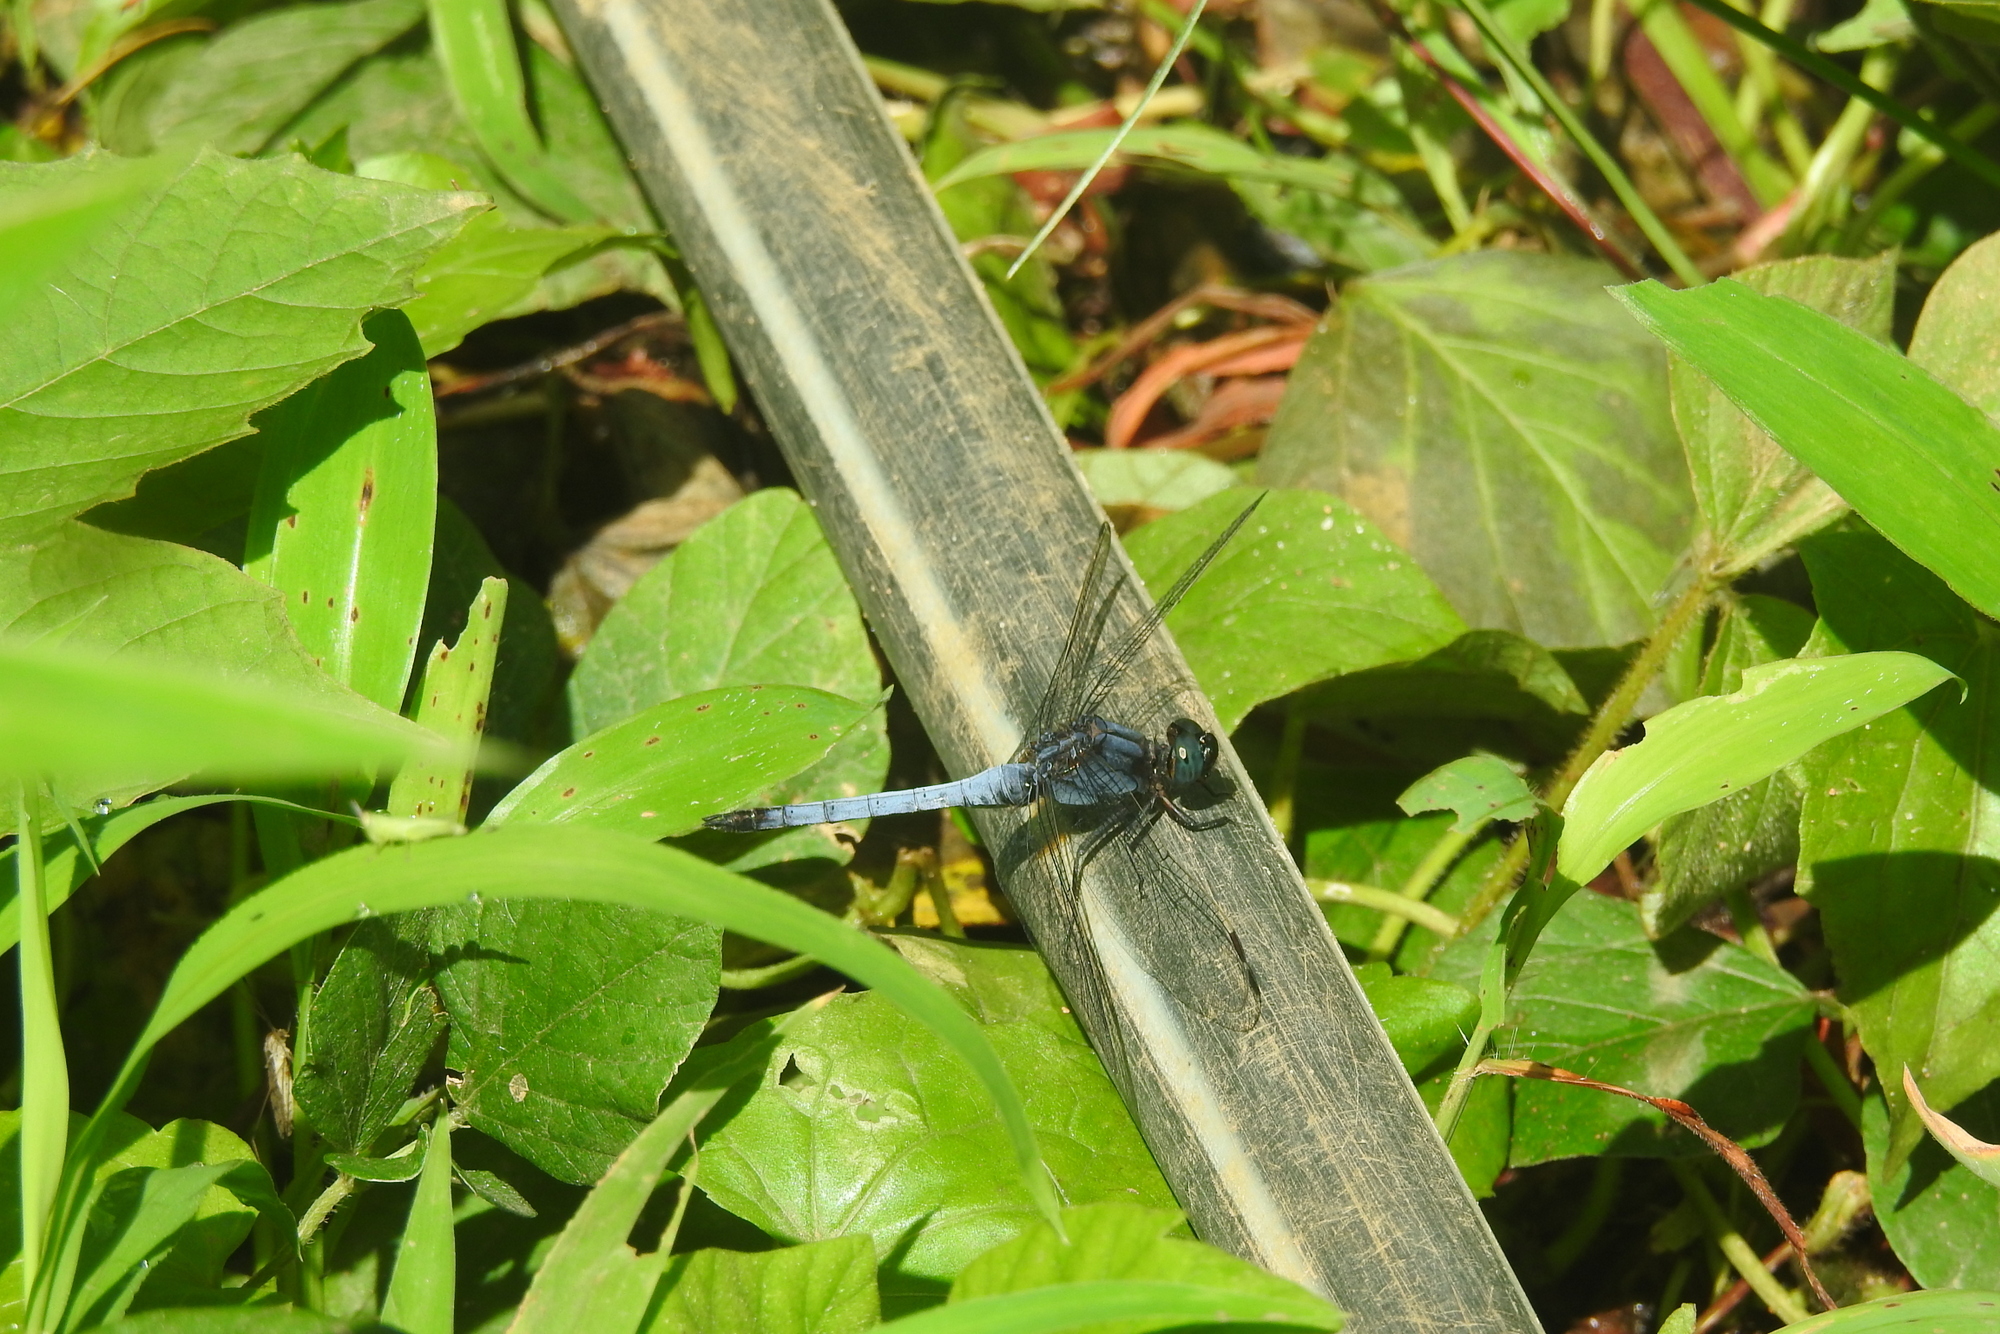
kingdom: Animalia
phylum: Arthropoda
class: Insecta
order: Odonata
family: Libellulidae
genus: Orthetrum
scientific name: Orthetrum glaucum
